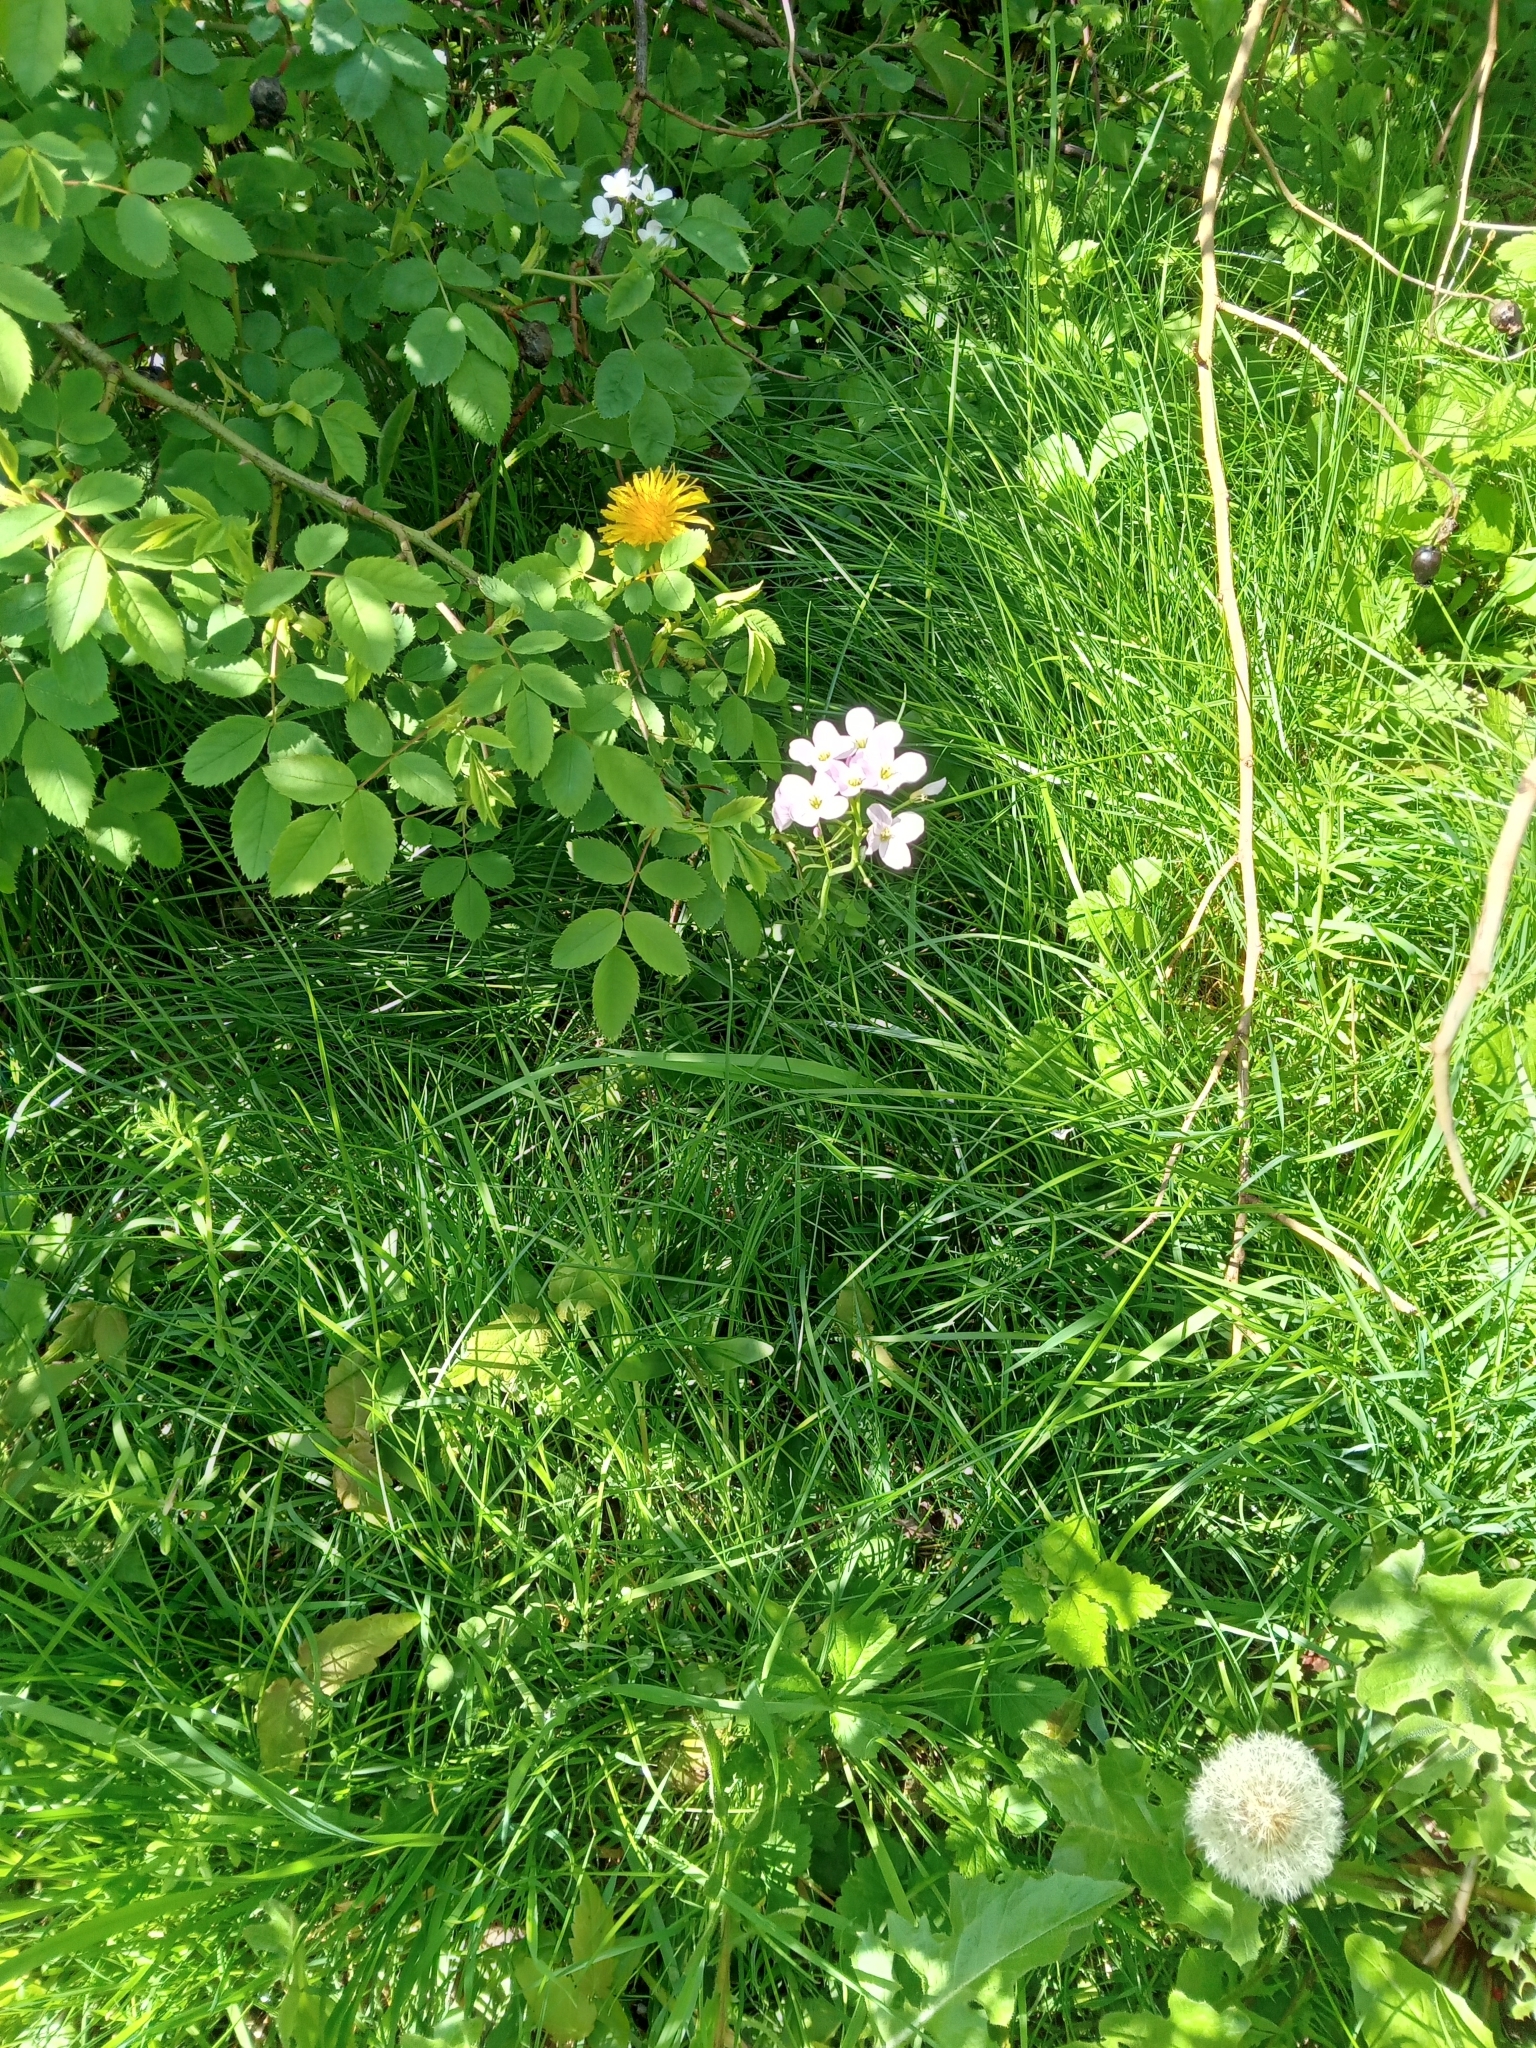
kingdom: Plantae
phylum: Tracheophyta
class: Magnoliopsida
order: Brassicales
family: Brassicaceae
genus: Cardamine
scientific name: Cardamine pratensis
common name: Cuckoo flower
